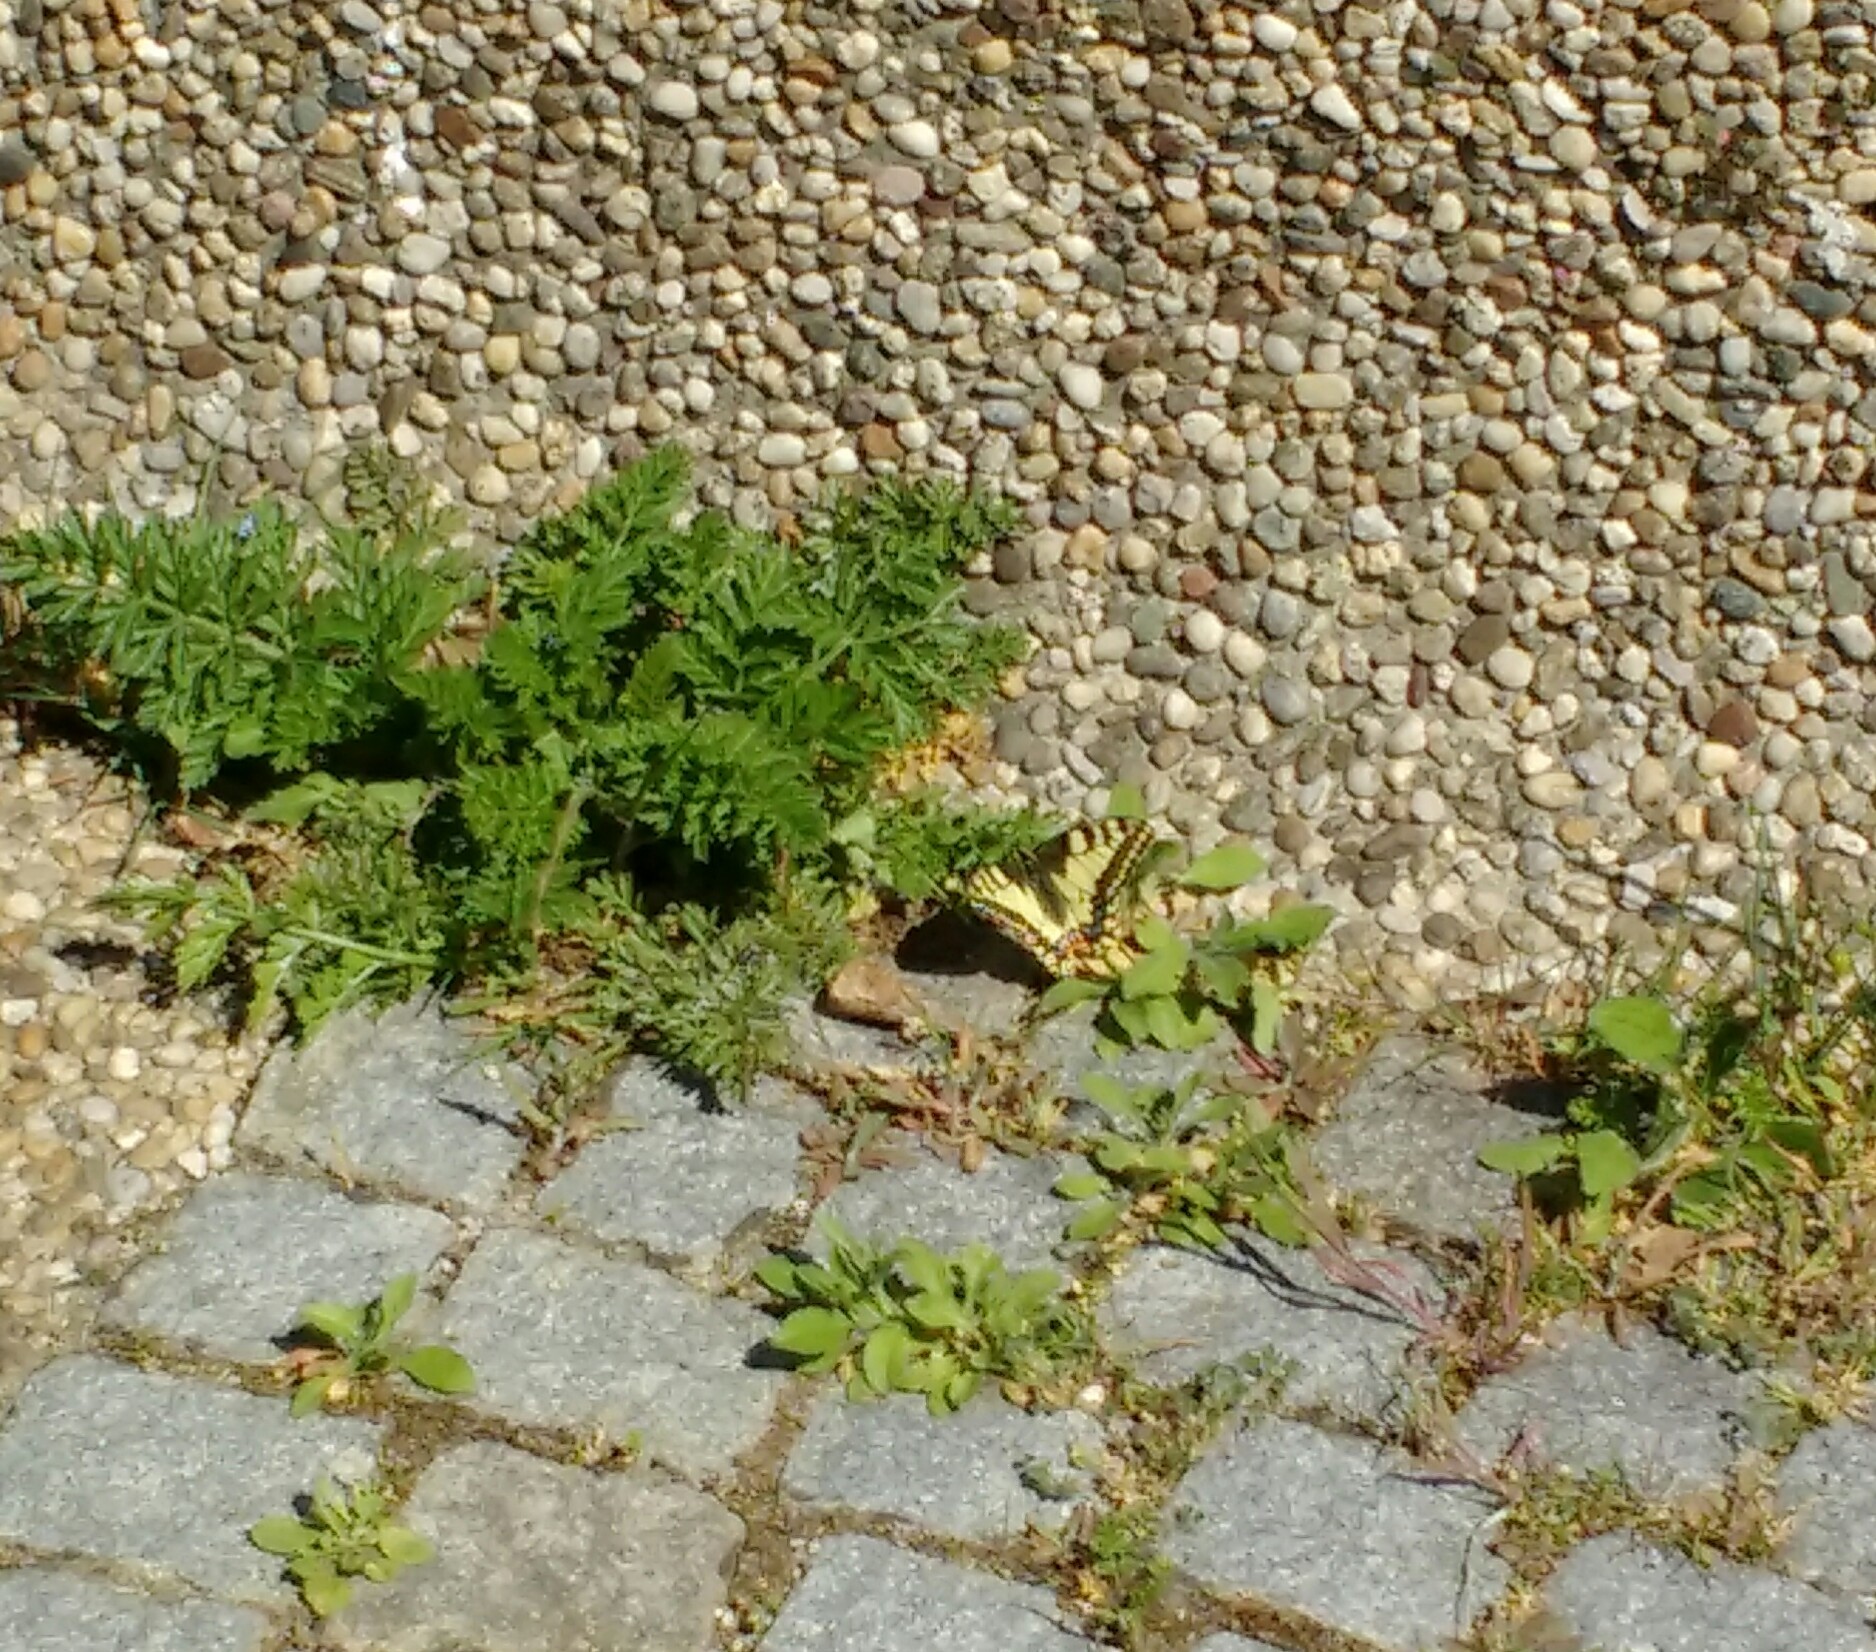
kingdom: Animalia
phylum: Arthropoda
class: Insecta
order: Lepidoptera
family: Papilionidae
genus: Papilio
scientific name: Papilio machaon
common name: Swallowtail
